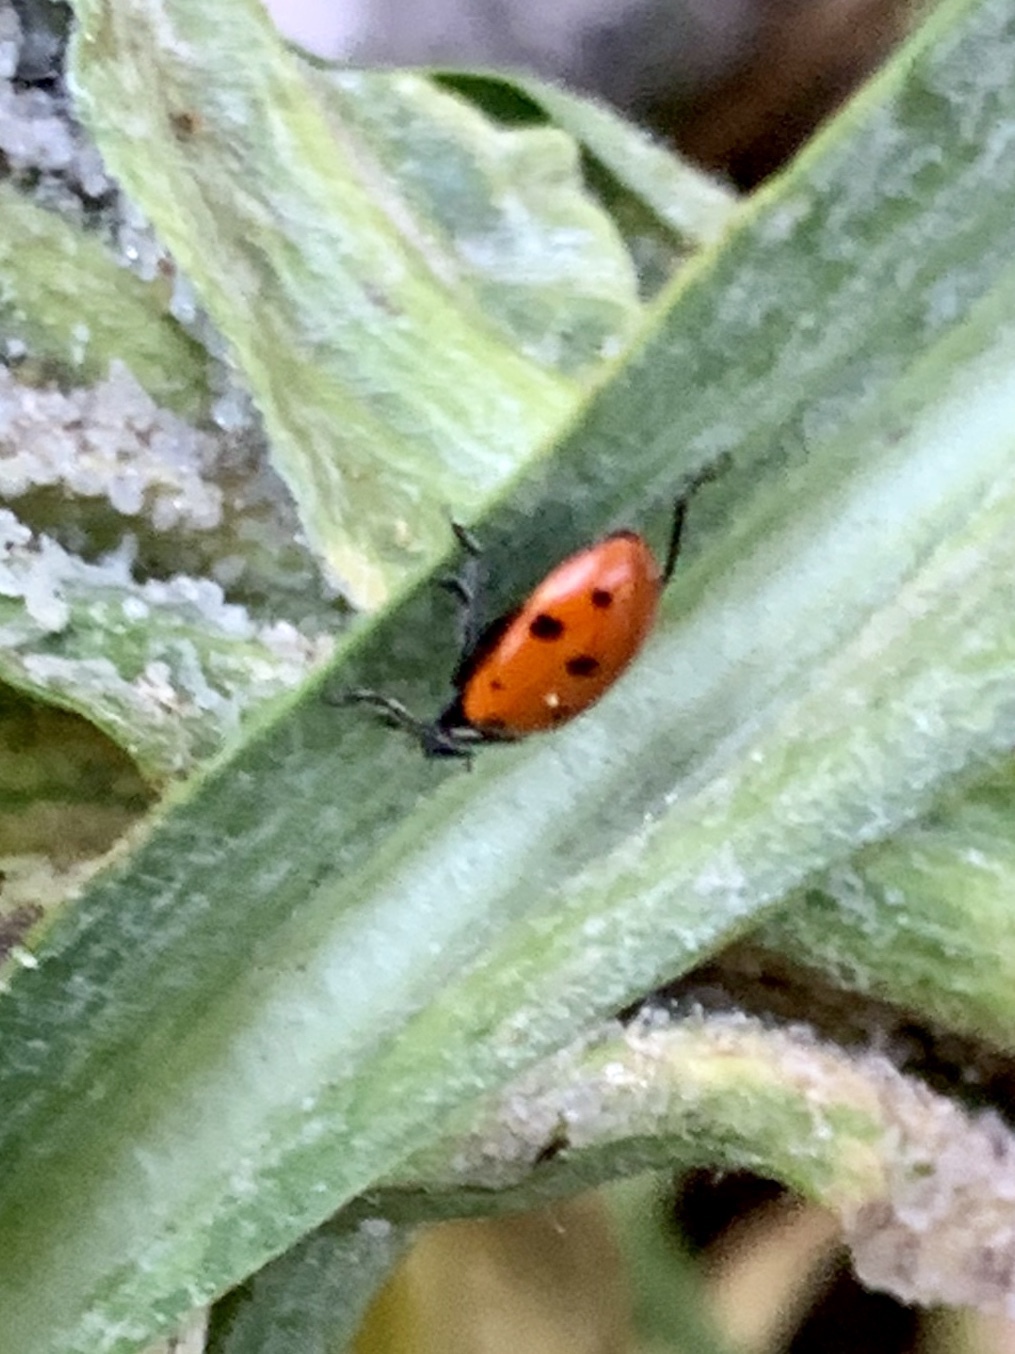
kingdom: Animalia
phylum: Arthropoda
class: Insecta
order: Coleoptera
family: Coccinellidae
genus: Hippodamia
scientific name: Hippodamia convergens
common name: Convergent lady beetle
